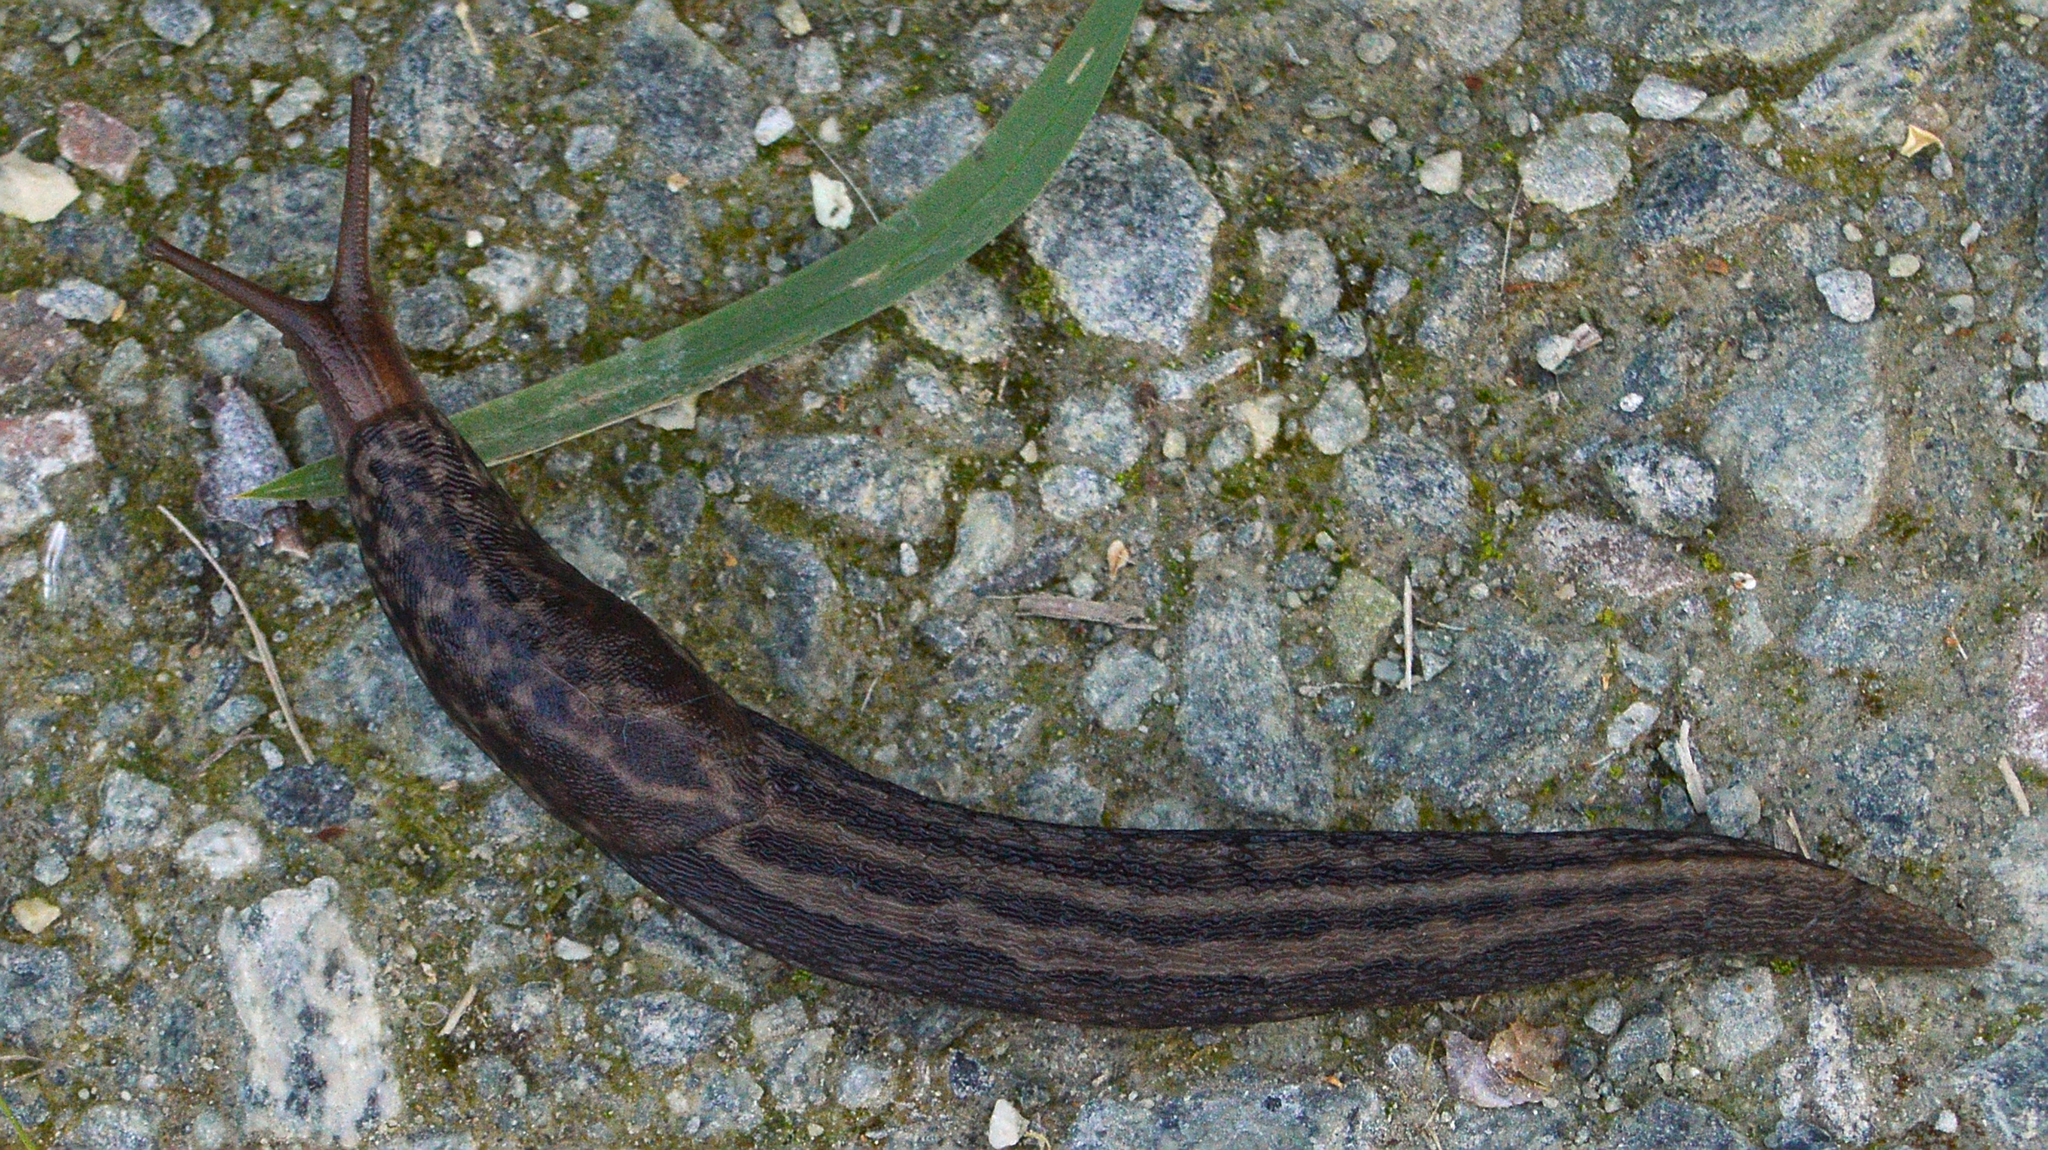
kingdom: Animalia
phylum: Mollusca
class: Gastropoda
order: Stylommatophora
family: Limacidae
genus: Limax
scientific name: Limax maximus
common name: Great grey slug
